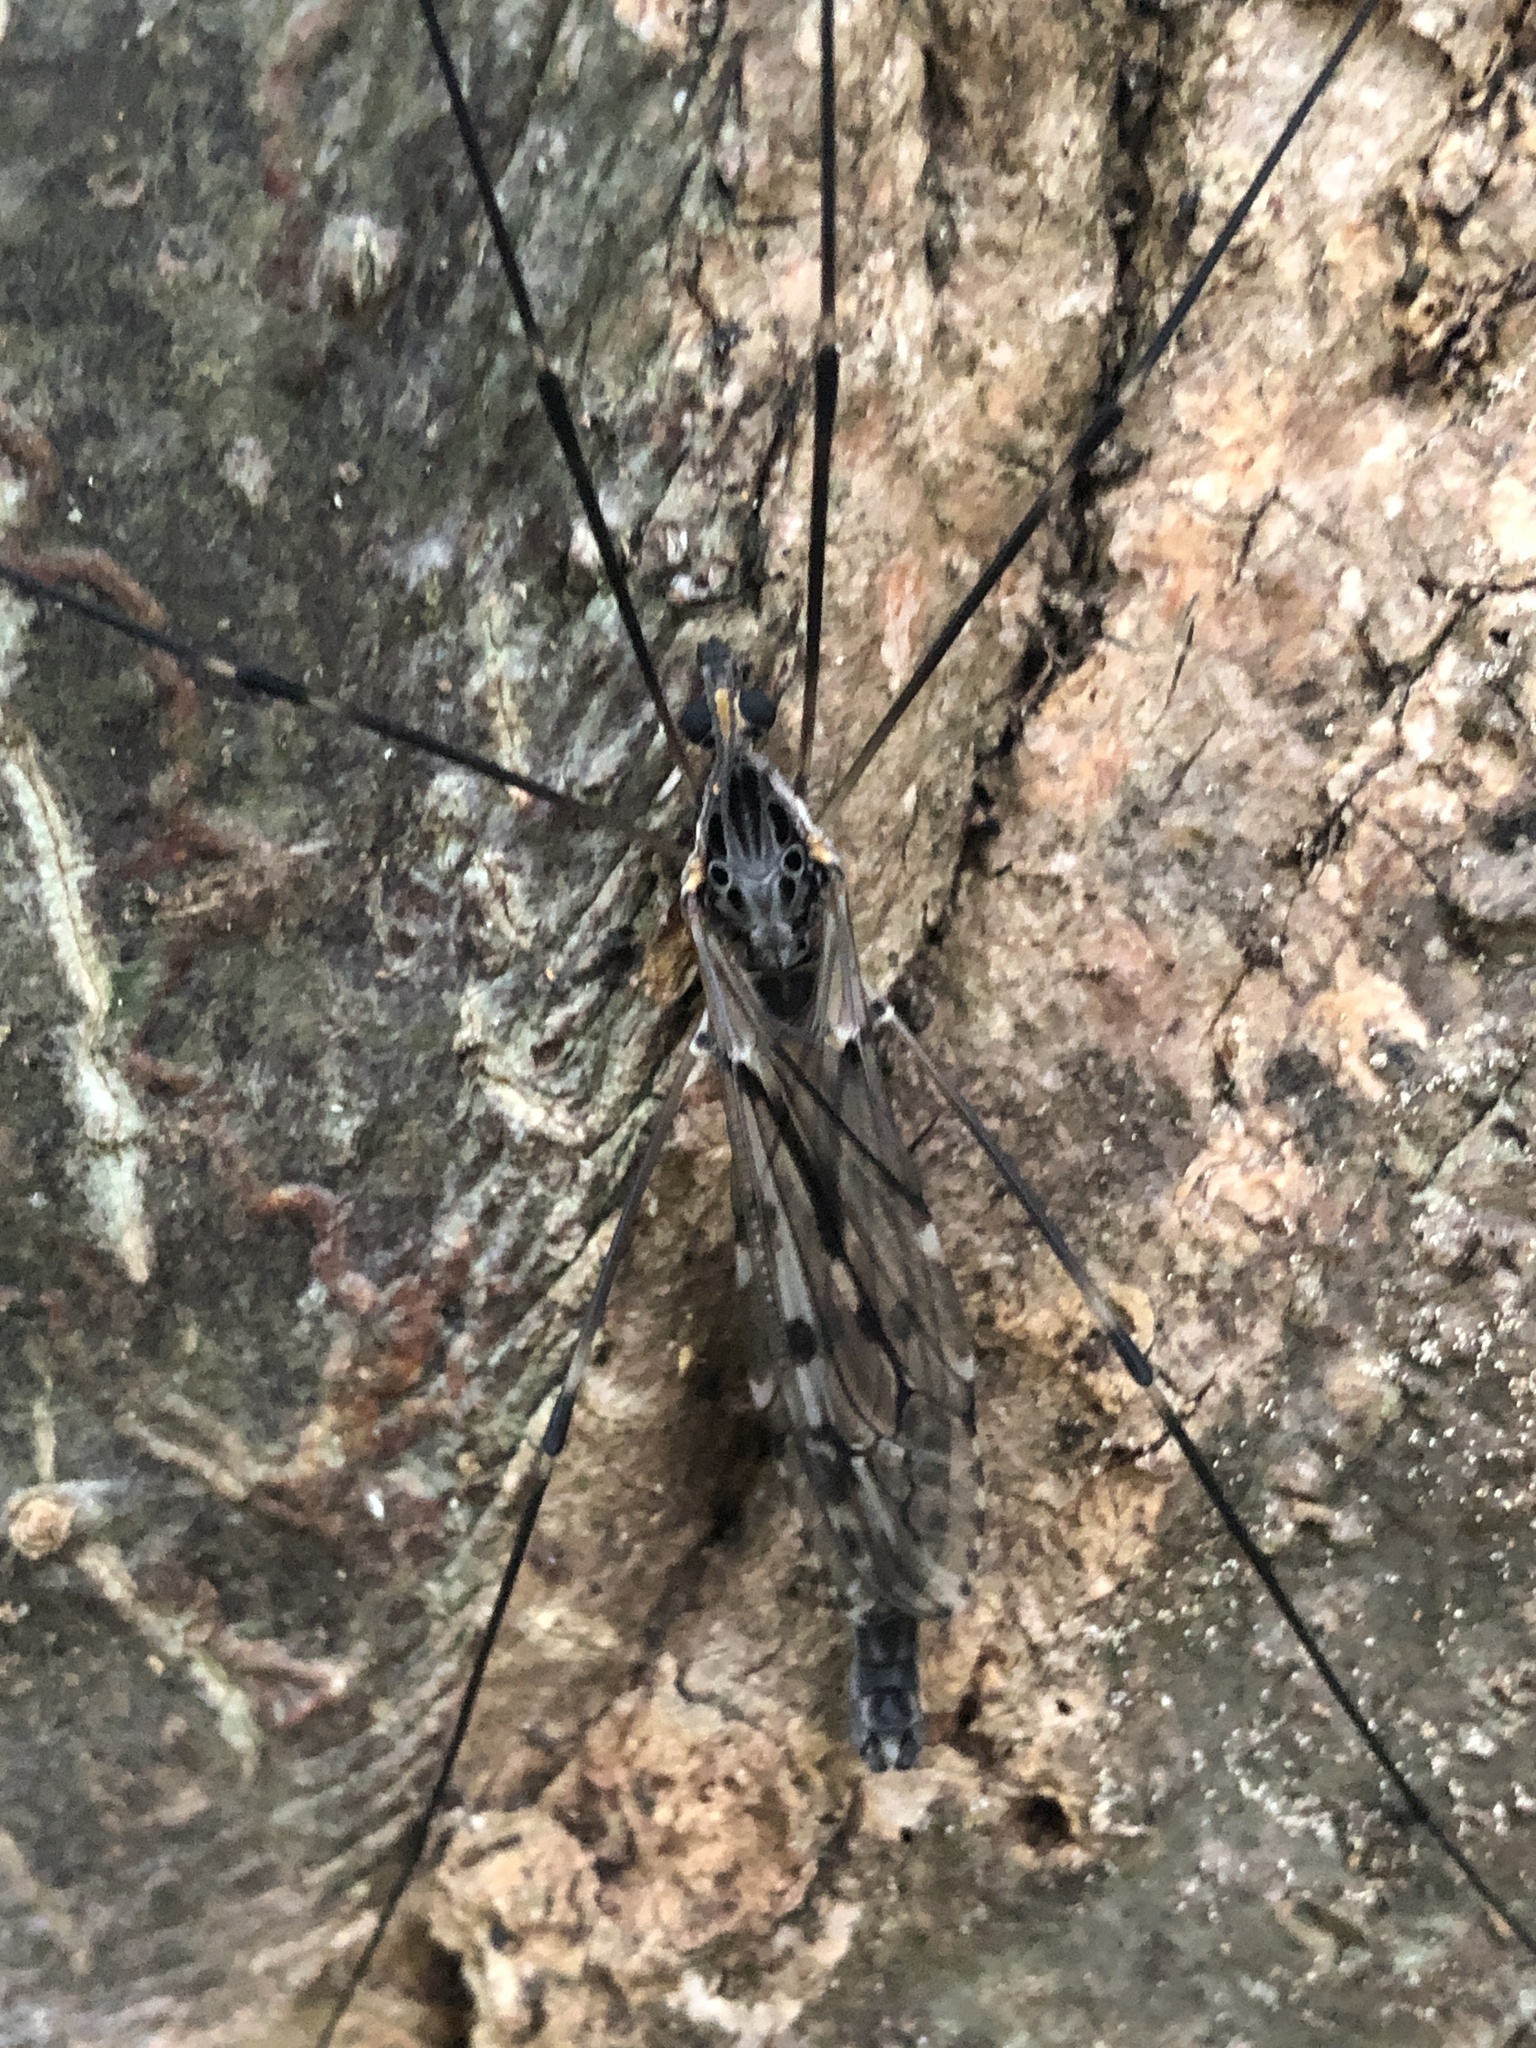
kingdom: Animalia
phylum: Arthropoda
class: Insecta
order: Diptera
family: Tipulidae
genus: Tipula
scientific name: Tipula abdominalis
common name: Giant crane fly
